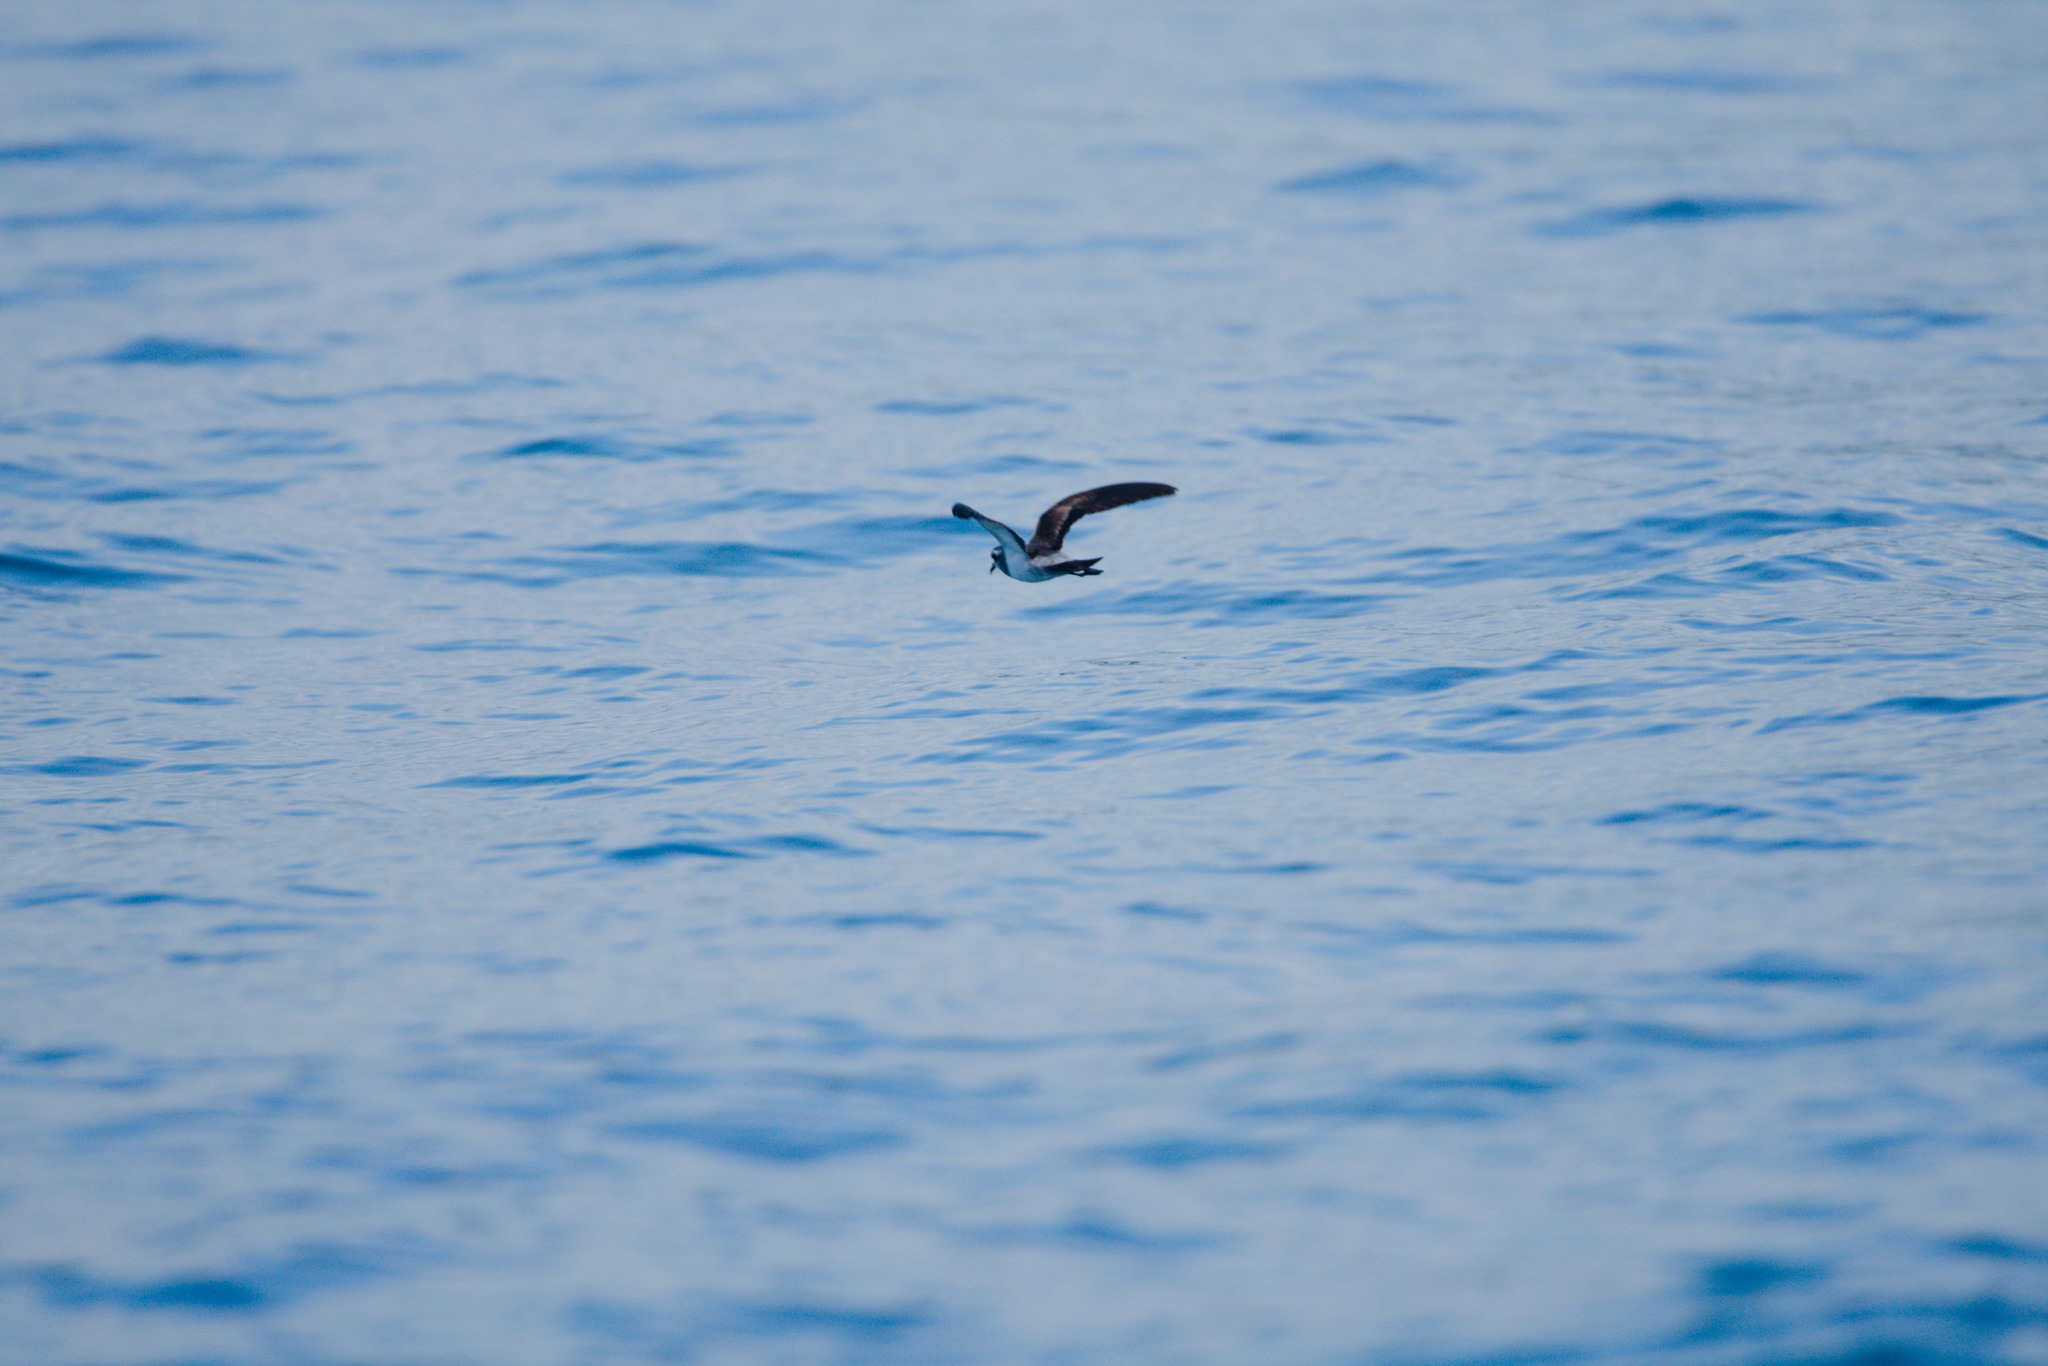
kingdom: Animalia
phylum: Chordata
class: Aves
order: Procellariiformes
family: Hydrobatidae
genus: Pelagodroma
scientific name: Pelagodroma marina
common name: White-faced storm-petrel
